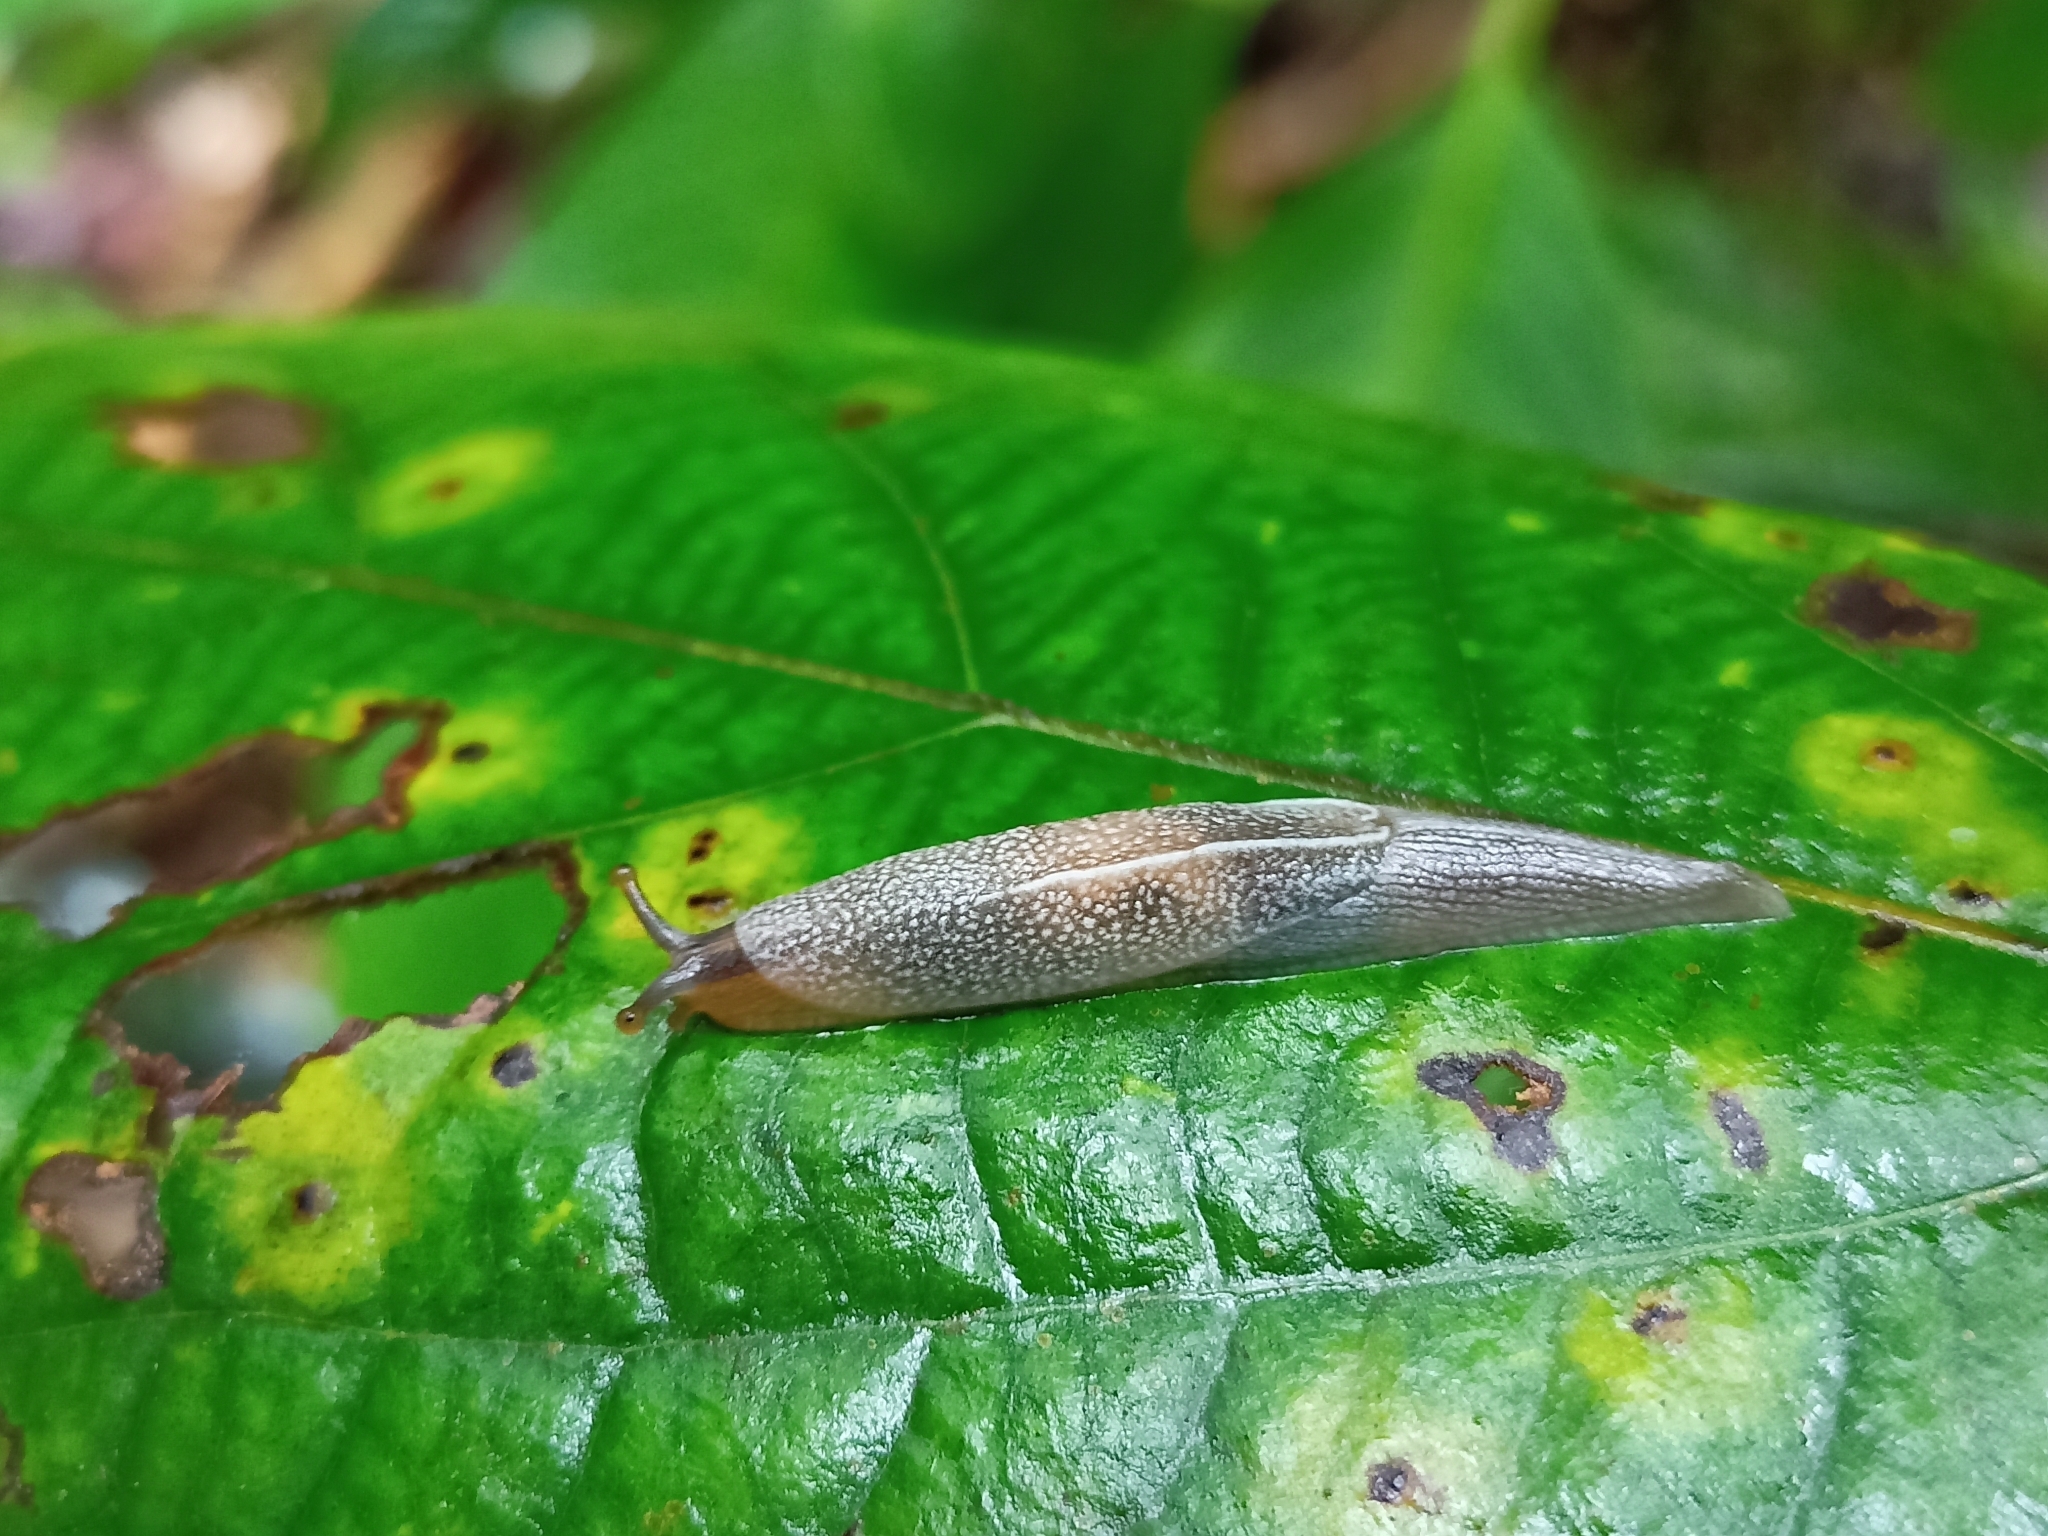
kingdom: Animalia
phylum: Mollusca
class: Gastropoda
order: Stylommatophora
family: Ariophantidae
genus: Mariaella
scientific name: Mariaella dussumieri
